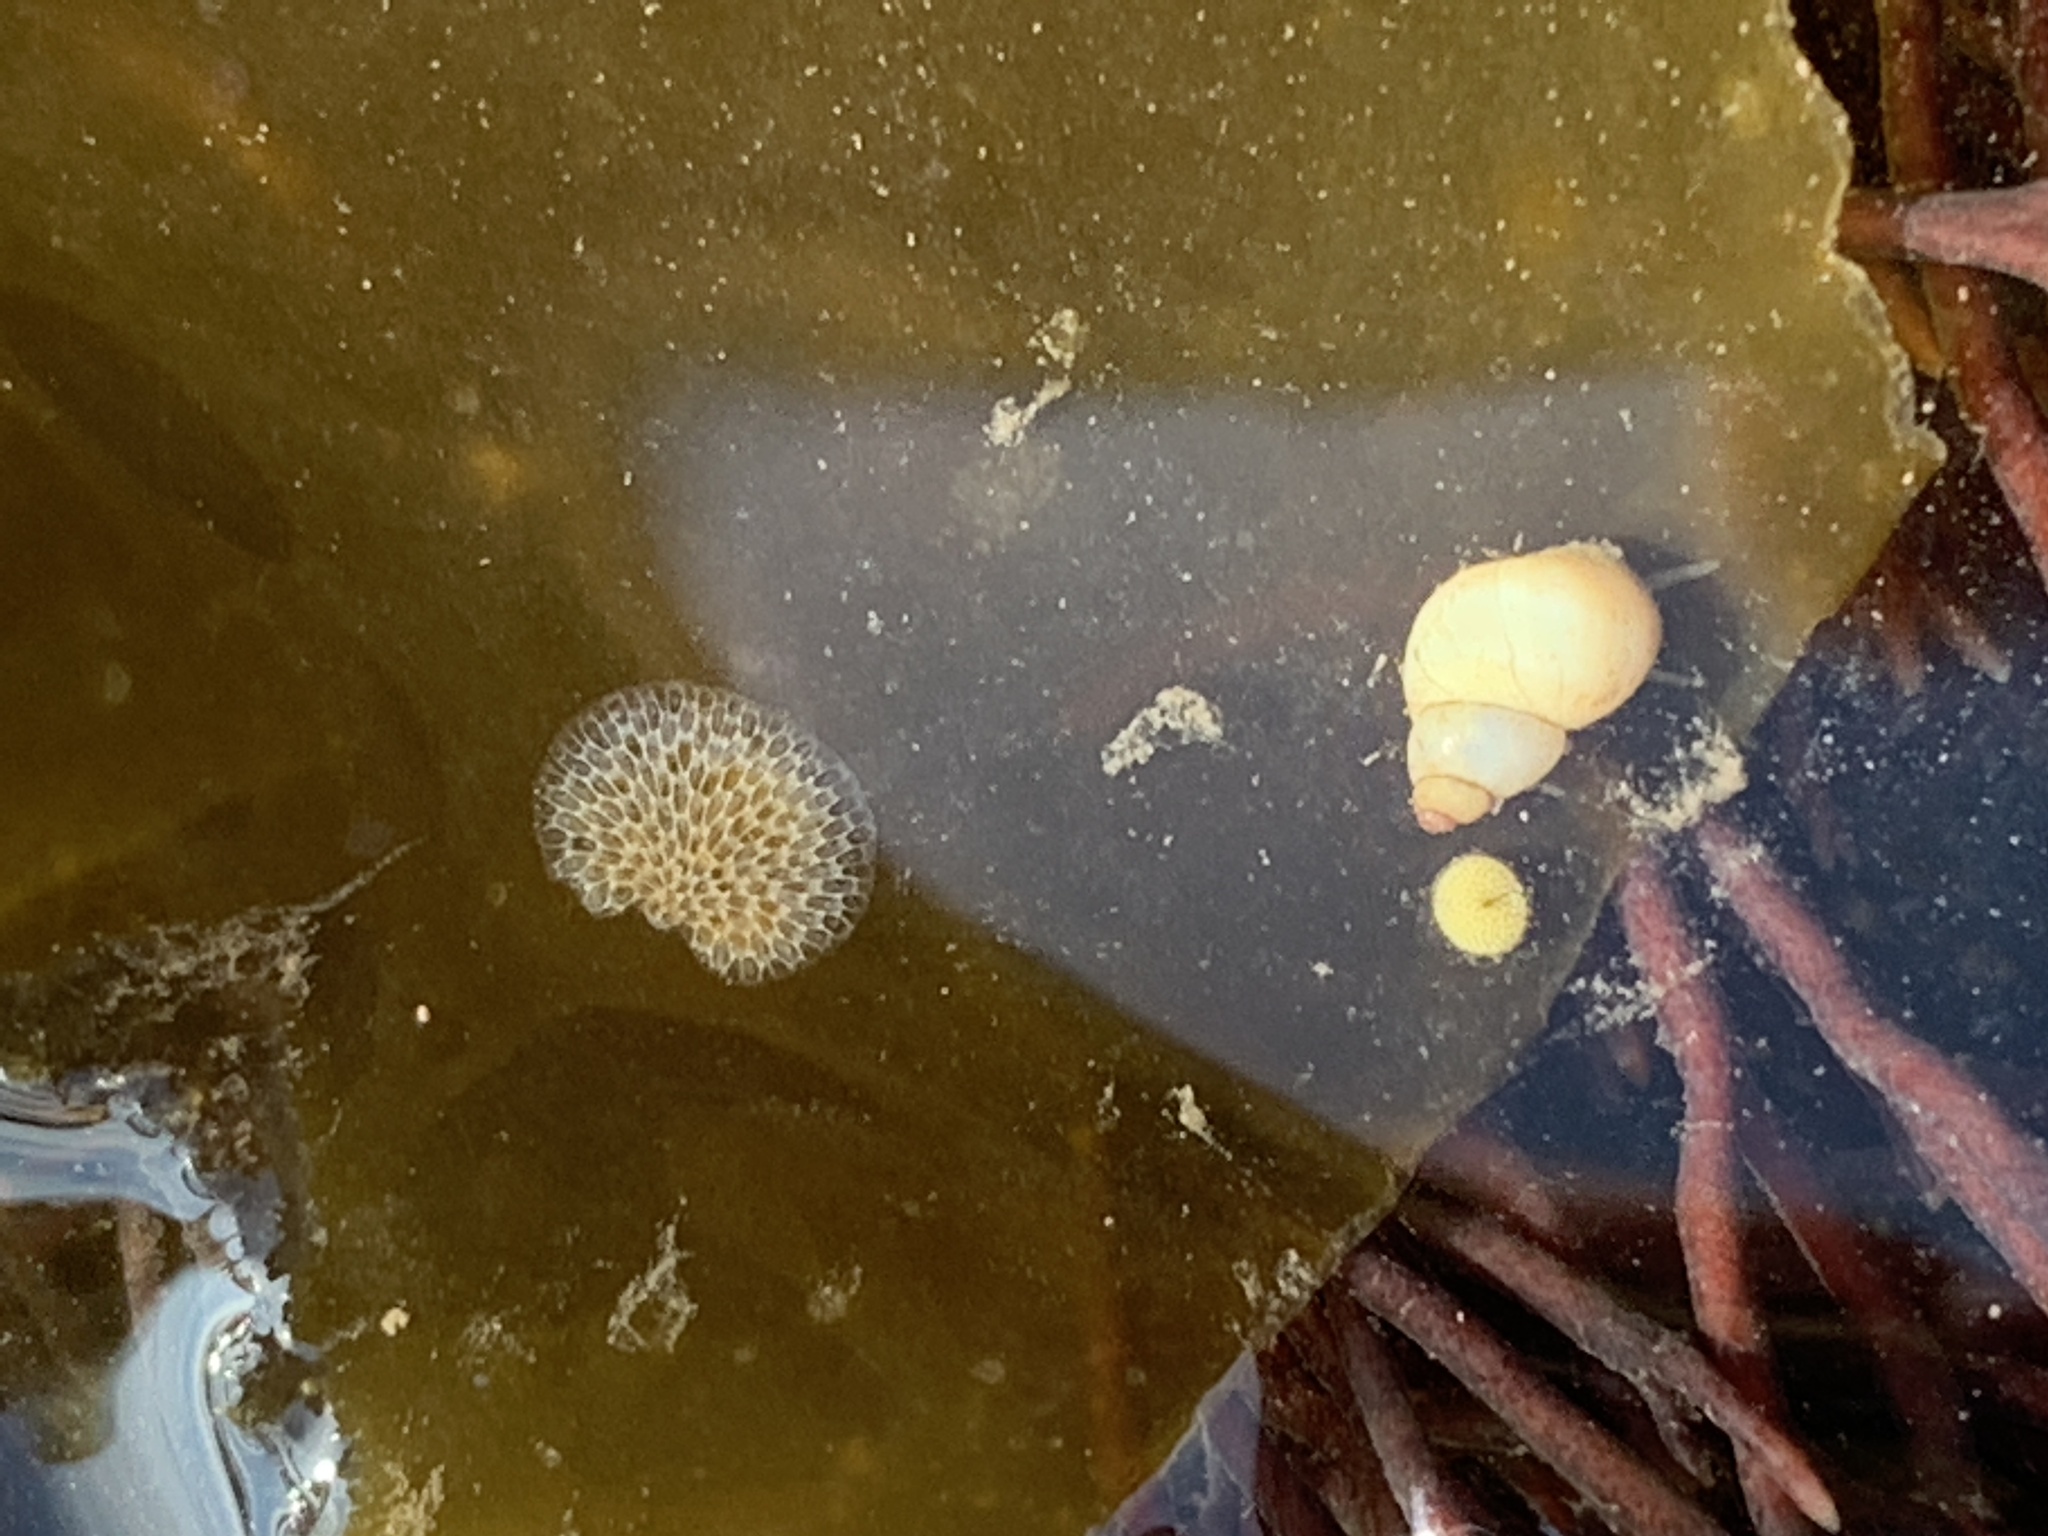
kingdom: Animalia
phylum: Mollusca
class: Gastropoda
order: Littorinimorpha
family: Littorinidae
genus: Lacuna
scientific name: Lacuna vincta
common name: Banded chink shell
